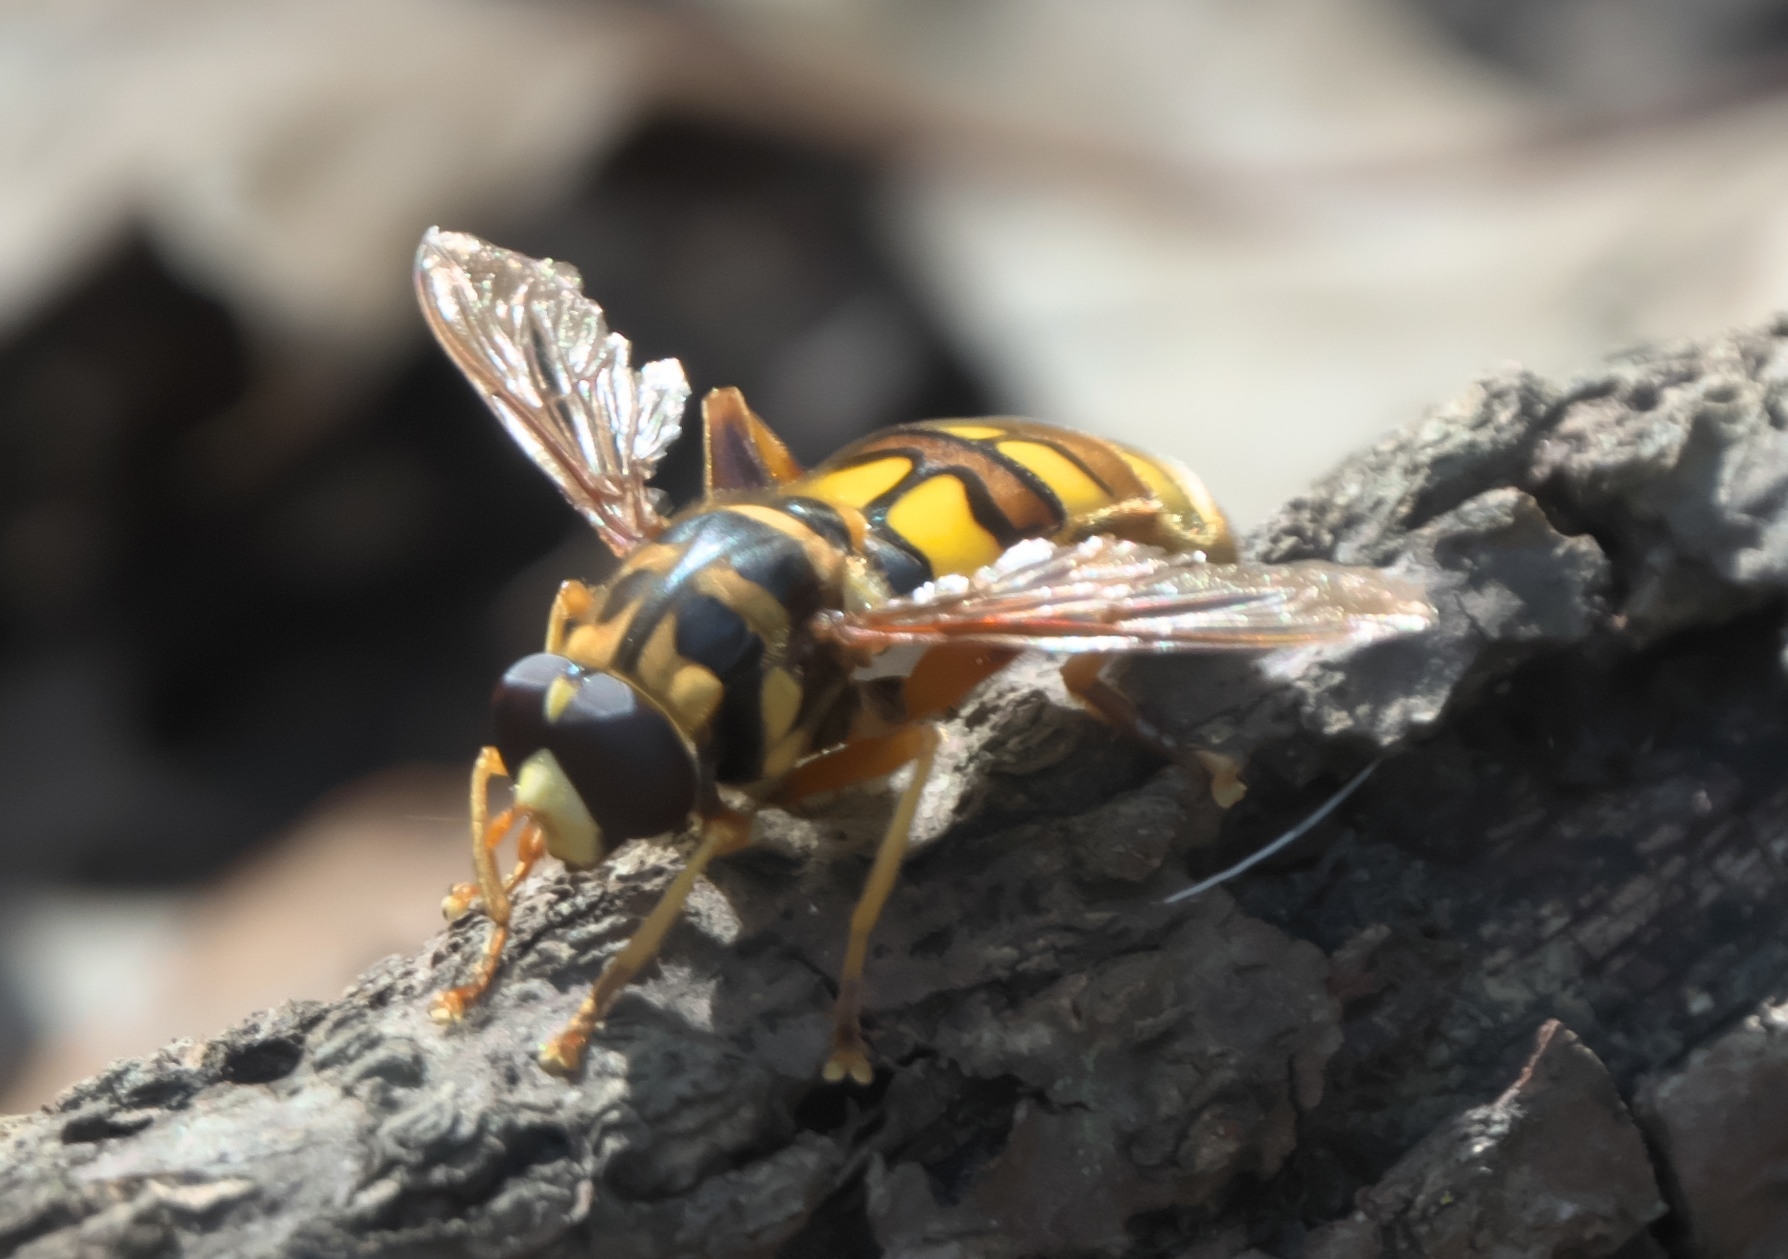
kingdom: Animalia
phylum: Arthropoda
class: Insecta
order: Diptera
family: Syrphidae
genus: Milesia
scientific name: Milesia virginiensis
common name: Virginia giant
